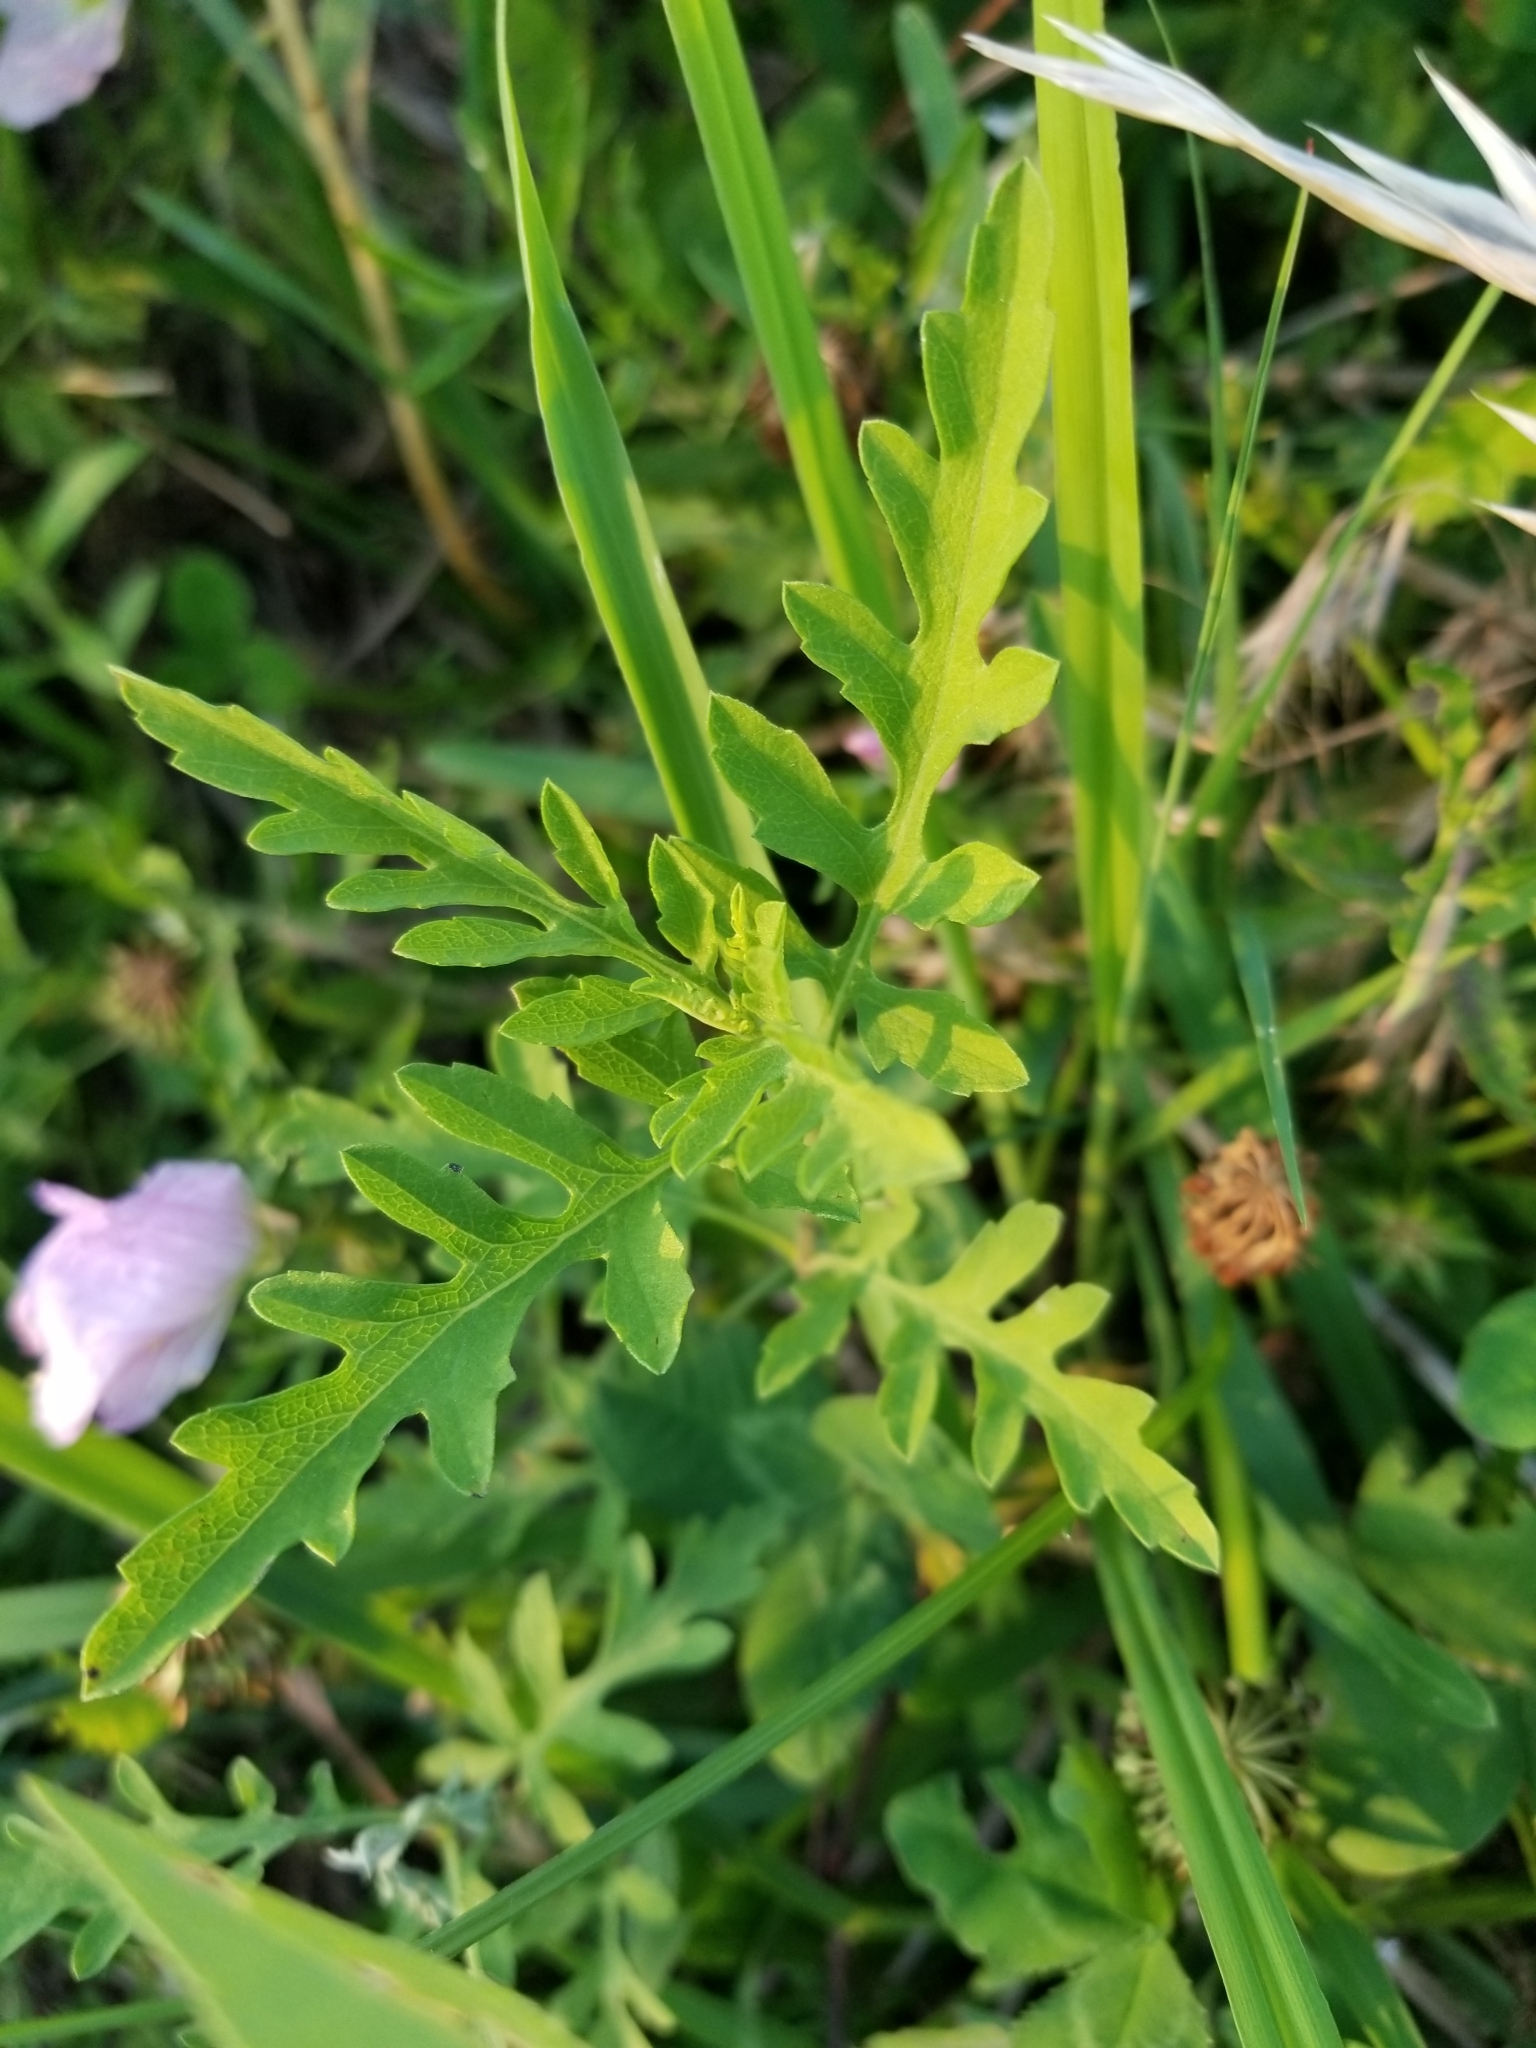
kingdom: Plantae
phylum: Tracheophyta
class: Magnoliopsida
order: Asterales
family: Asteraceae
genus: Ambrosia
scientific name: Ambrosia psilostachya
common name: Perennial ragweed
